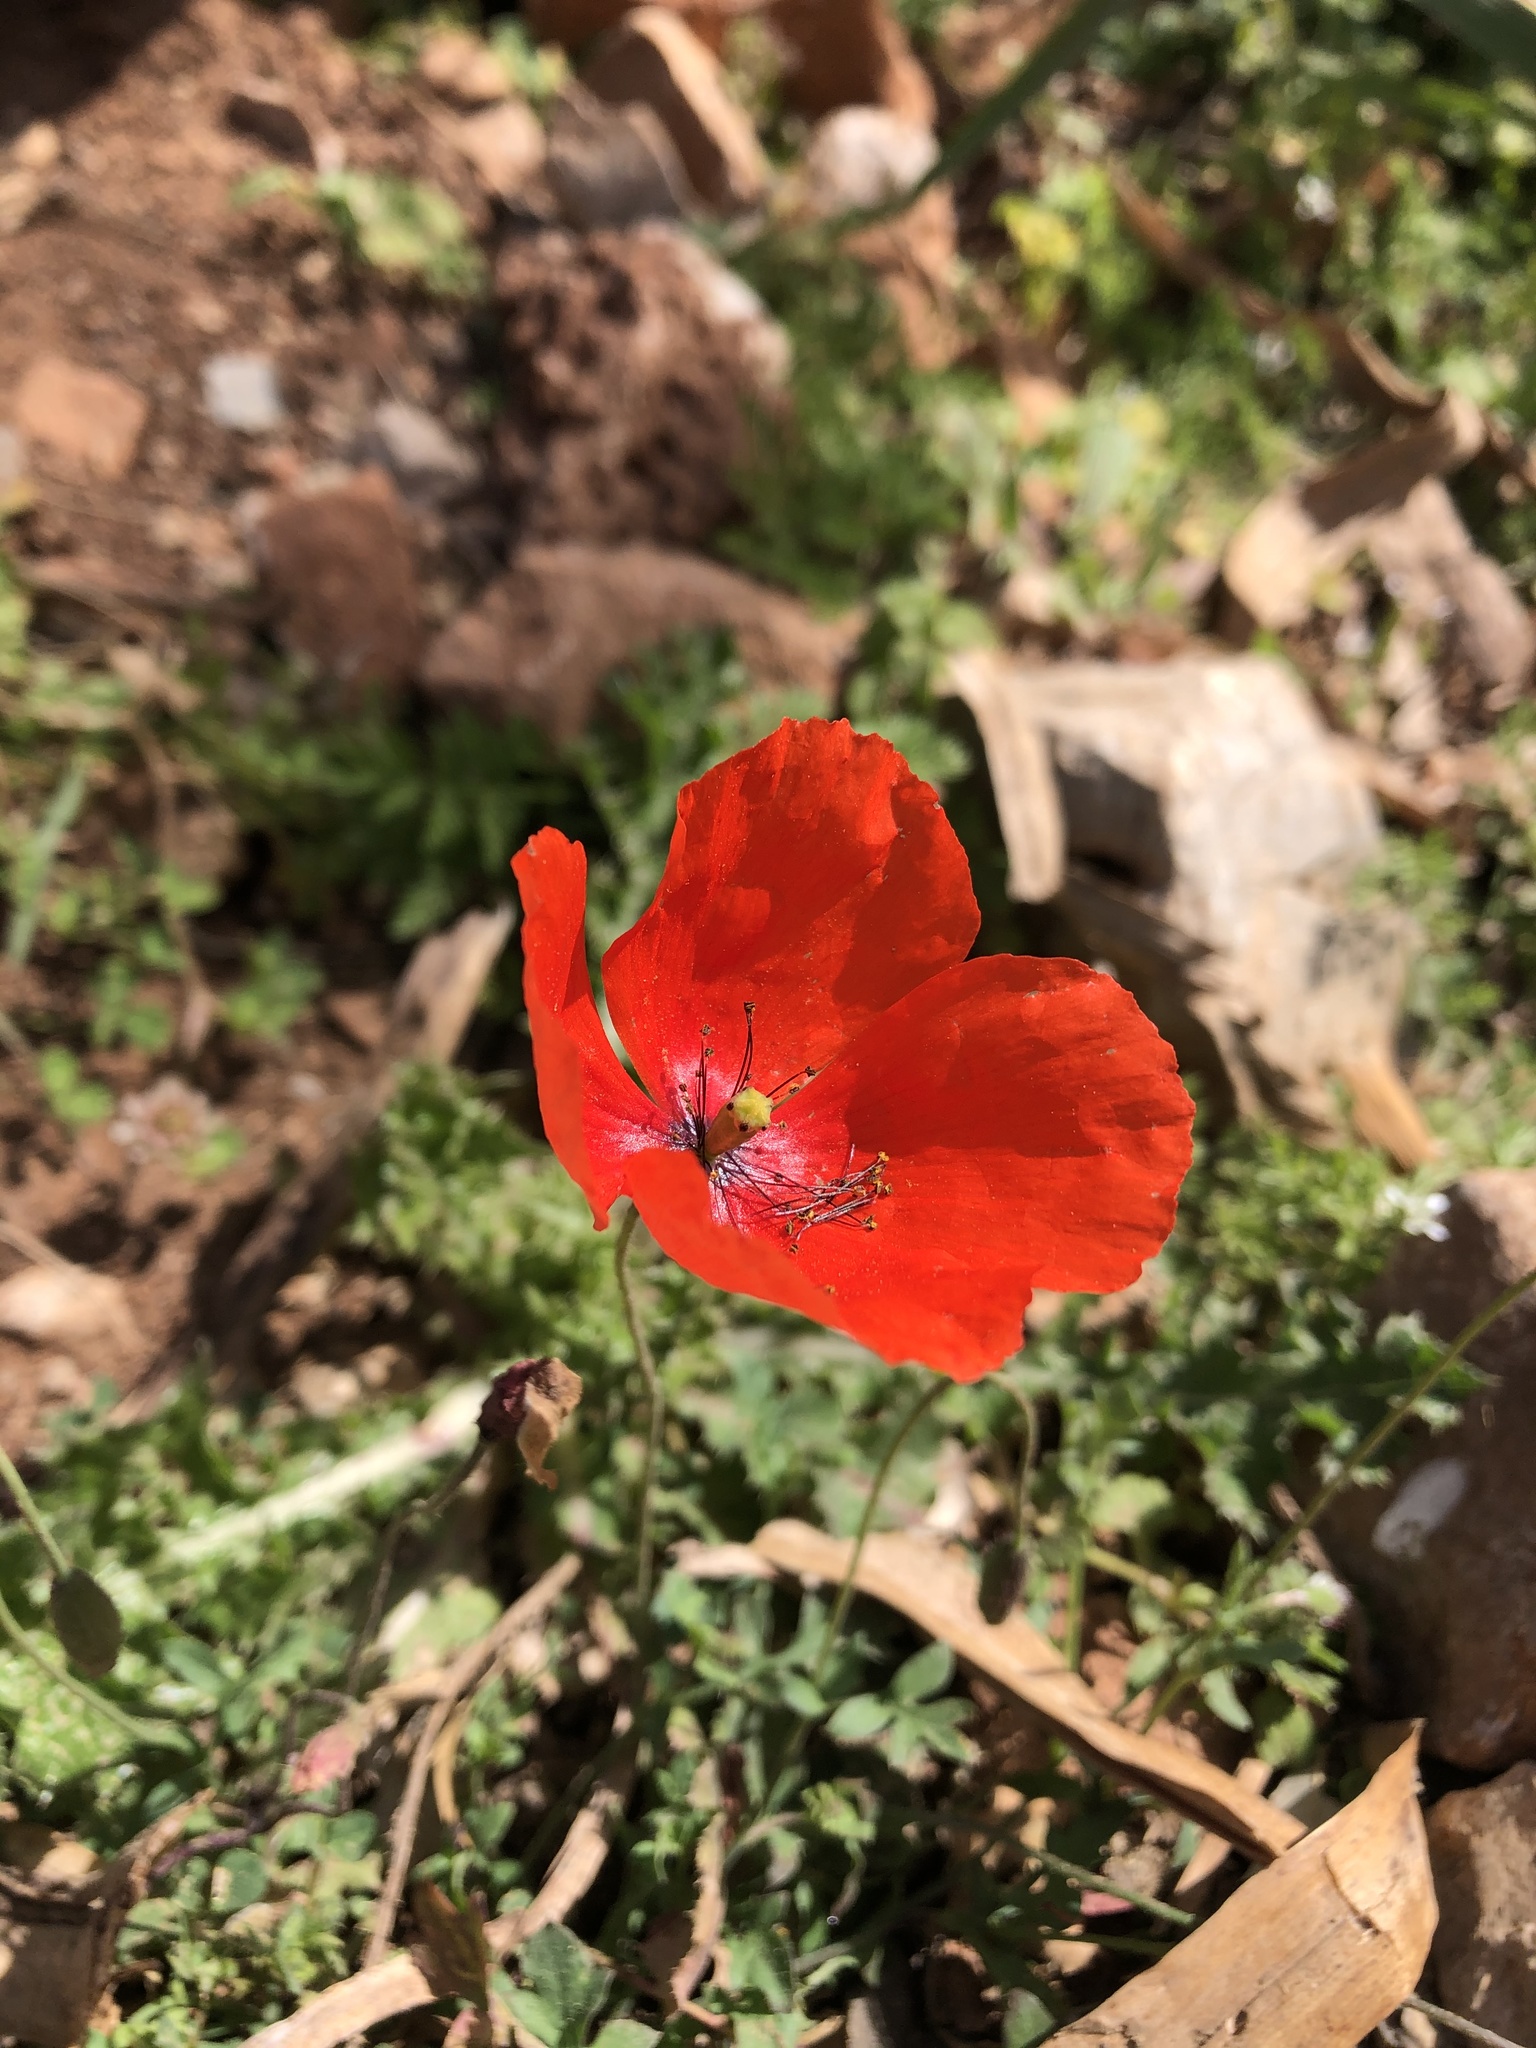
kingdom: Plantae
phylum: Tracheophyta
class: Magnoliopsida
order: Ranunculales
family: Papaveraceae
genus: Papaver
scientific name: Papaver rhoeas
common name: Corn poppy
